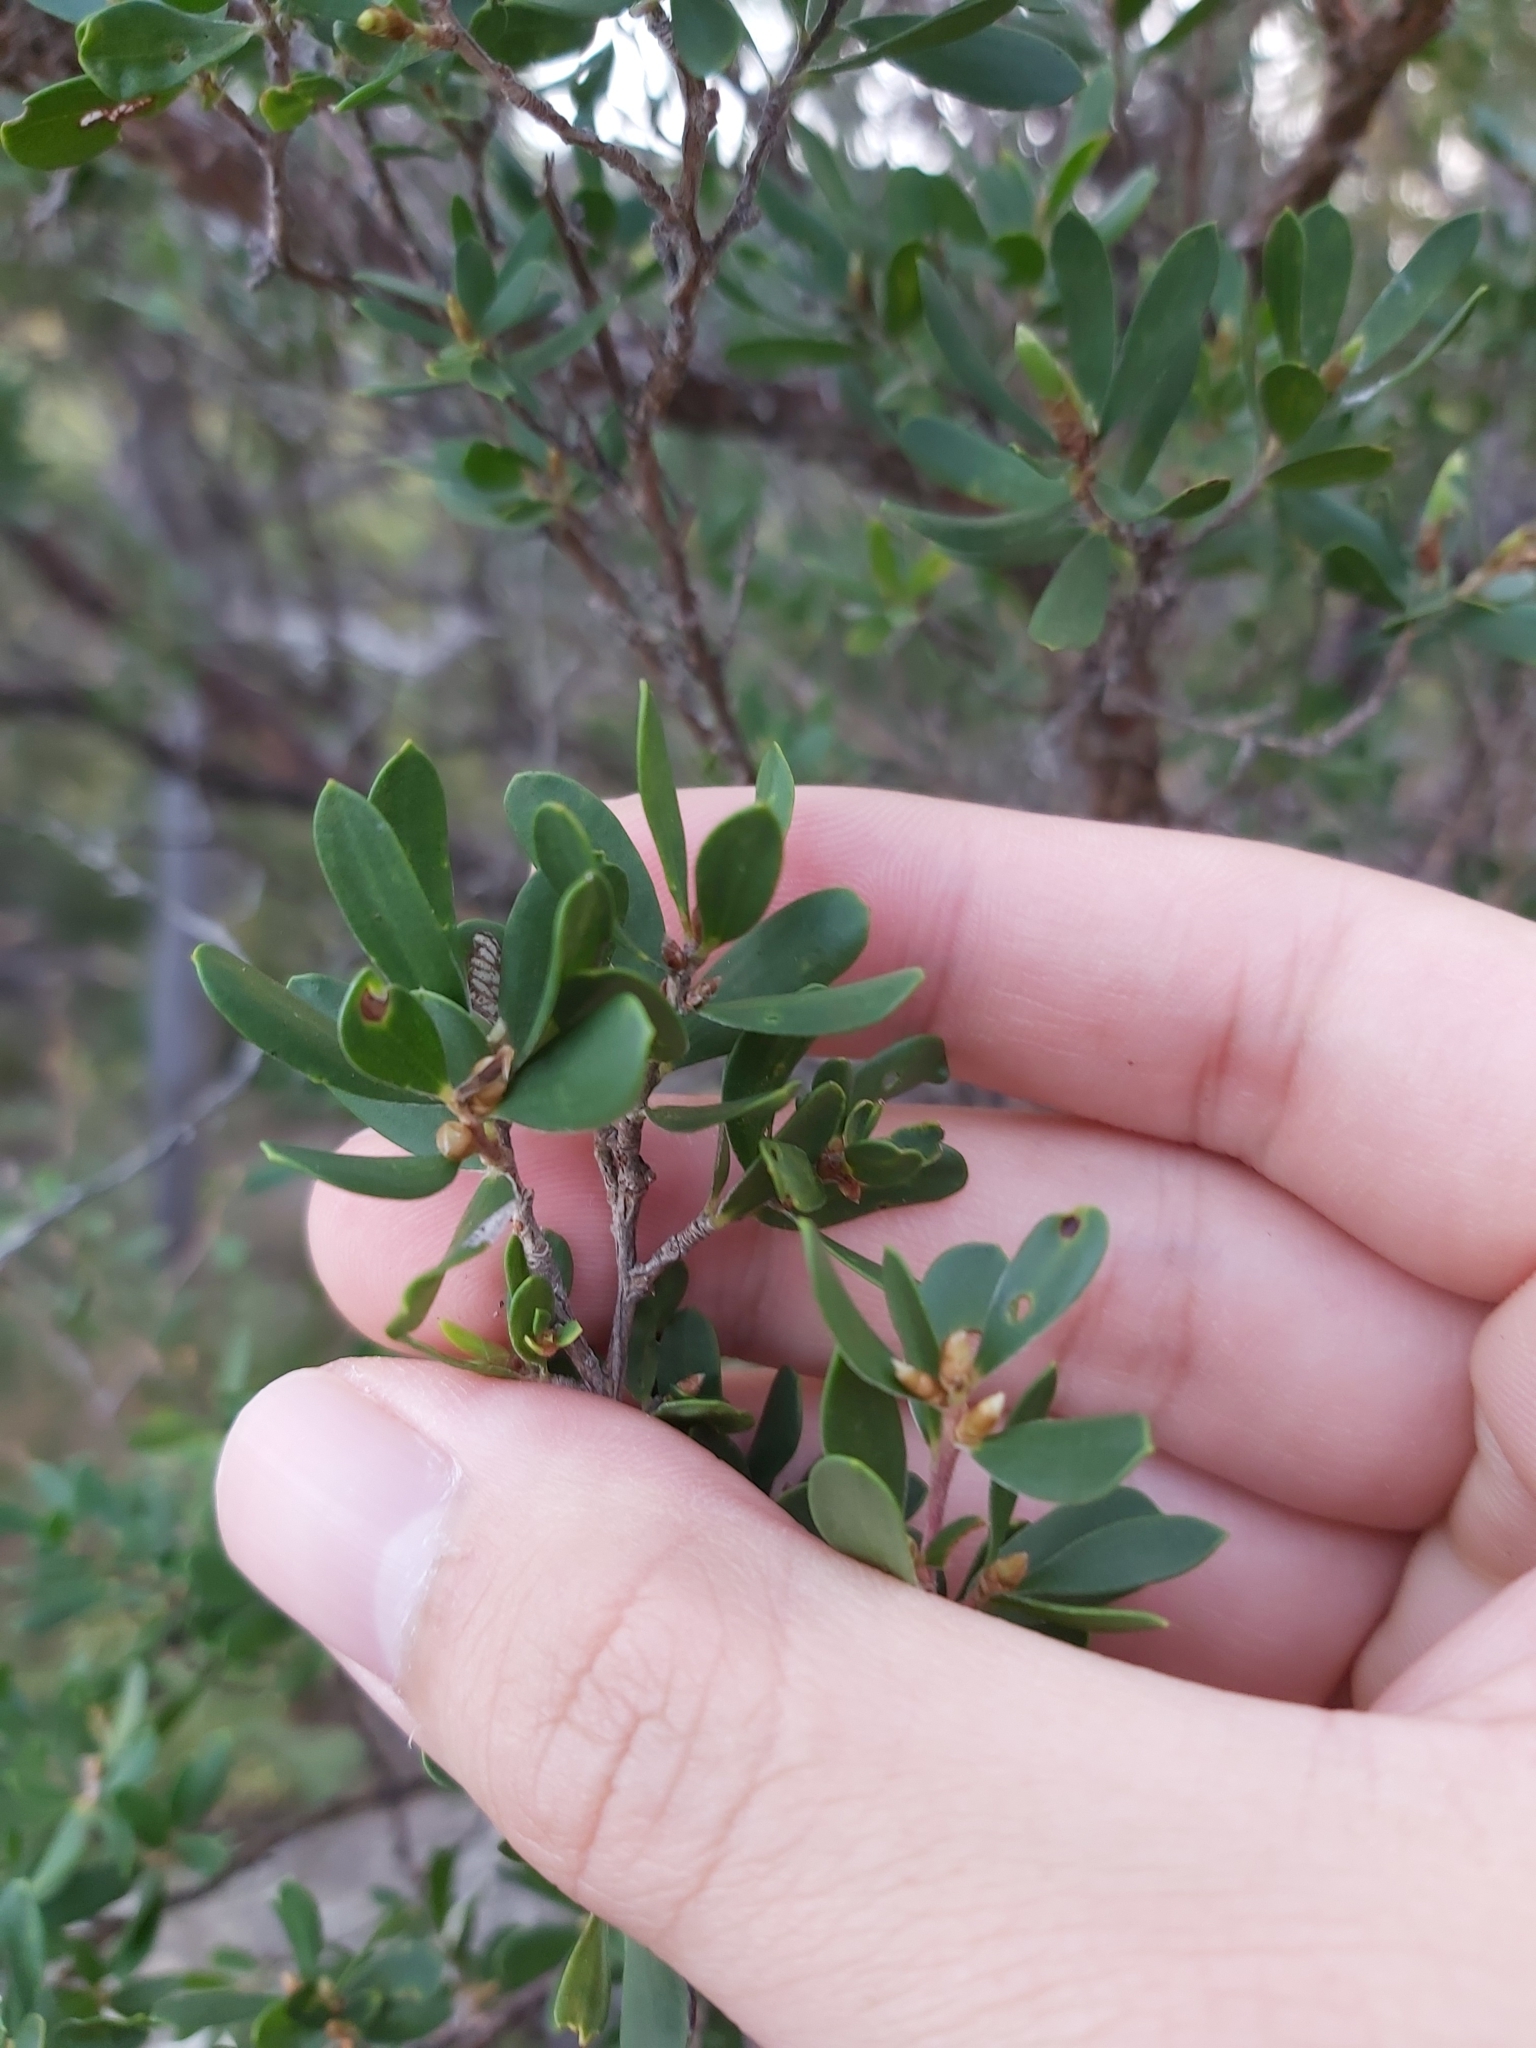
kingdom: Plantae
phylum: Tracheophyta
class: Magnoliopsida
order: Myrtales
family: Myrtaceae
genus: Leptospermum
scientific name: Leptospermum laevigatum
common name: Australian teatree
